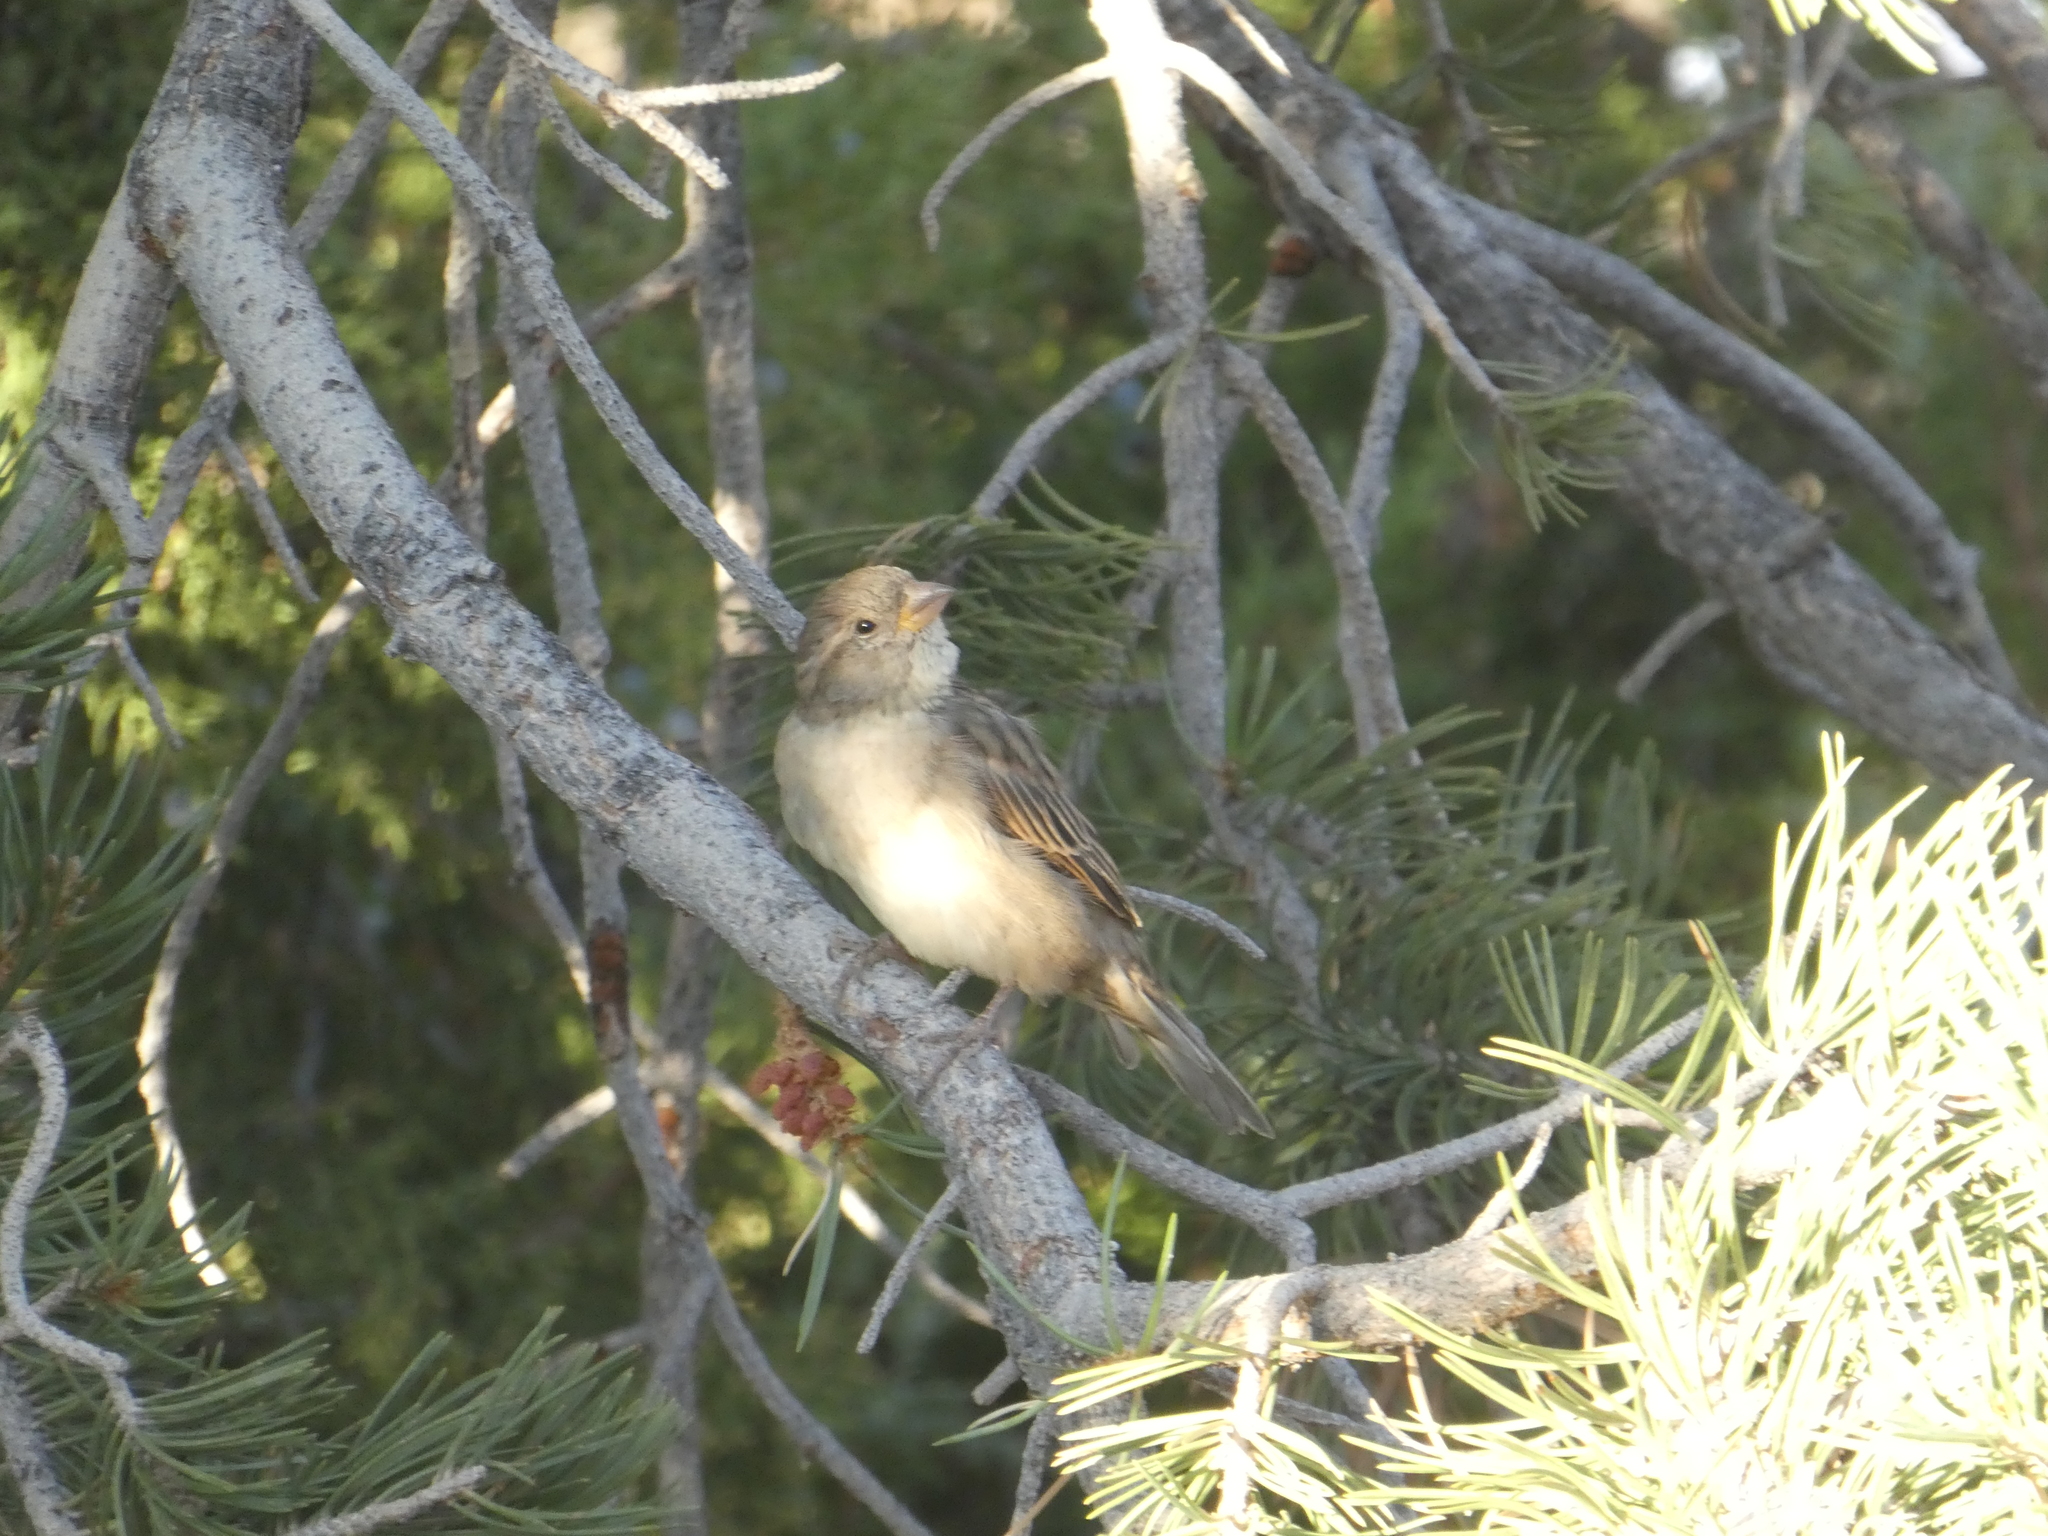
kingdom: Animalia
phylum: Chordata
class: Aves
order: Passeriformes
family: Passeridae
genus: Passer
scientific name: Passer domesticus
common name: House sparrow
